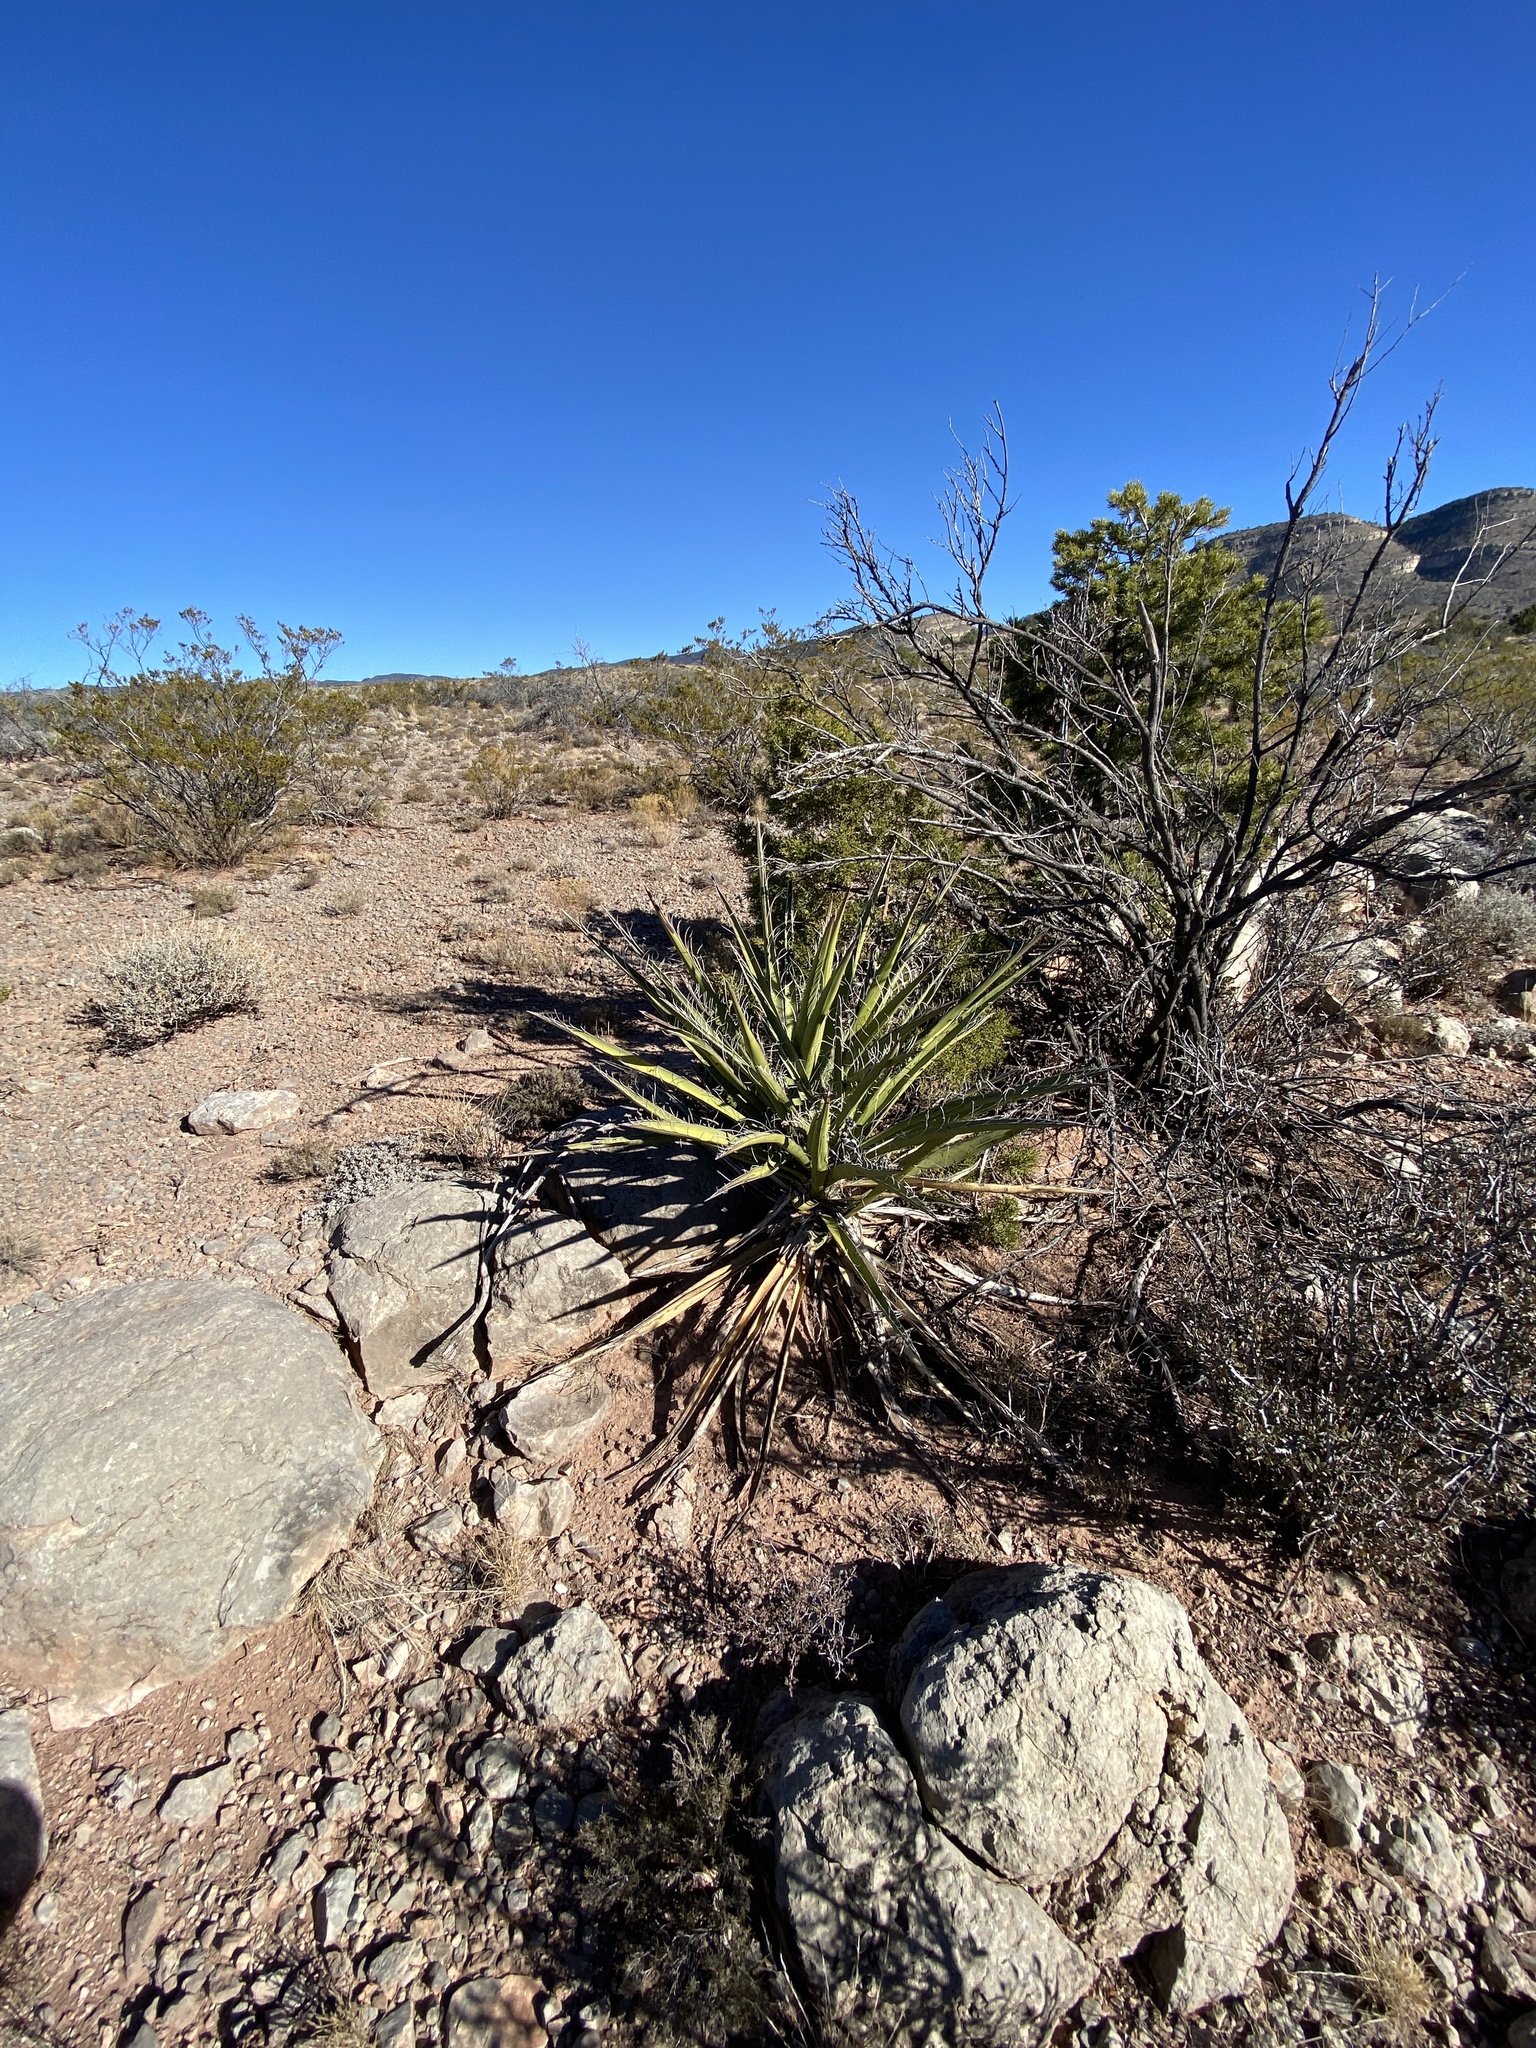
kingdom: Plantae
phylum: Tracheophyta
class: Liliopsida
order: Asparagales
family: Asparagaceae
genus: Yucca
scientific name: Yucca baccata
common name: Banana yucca
